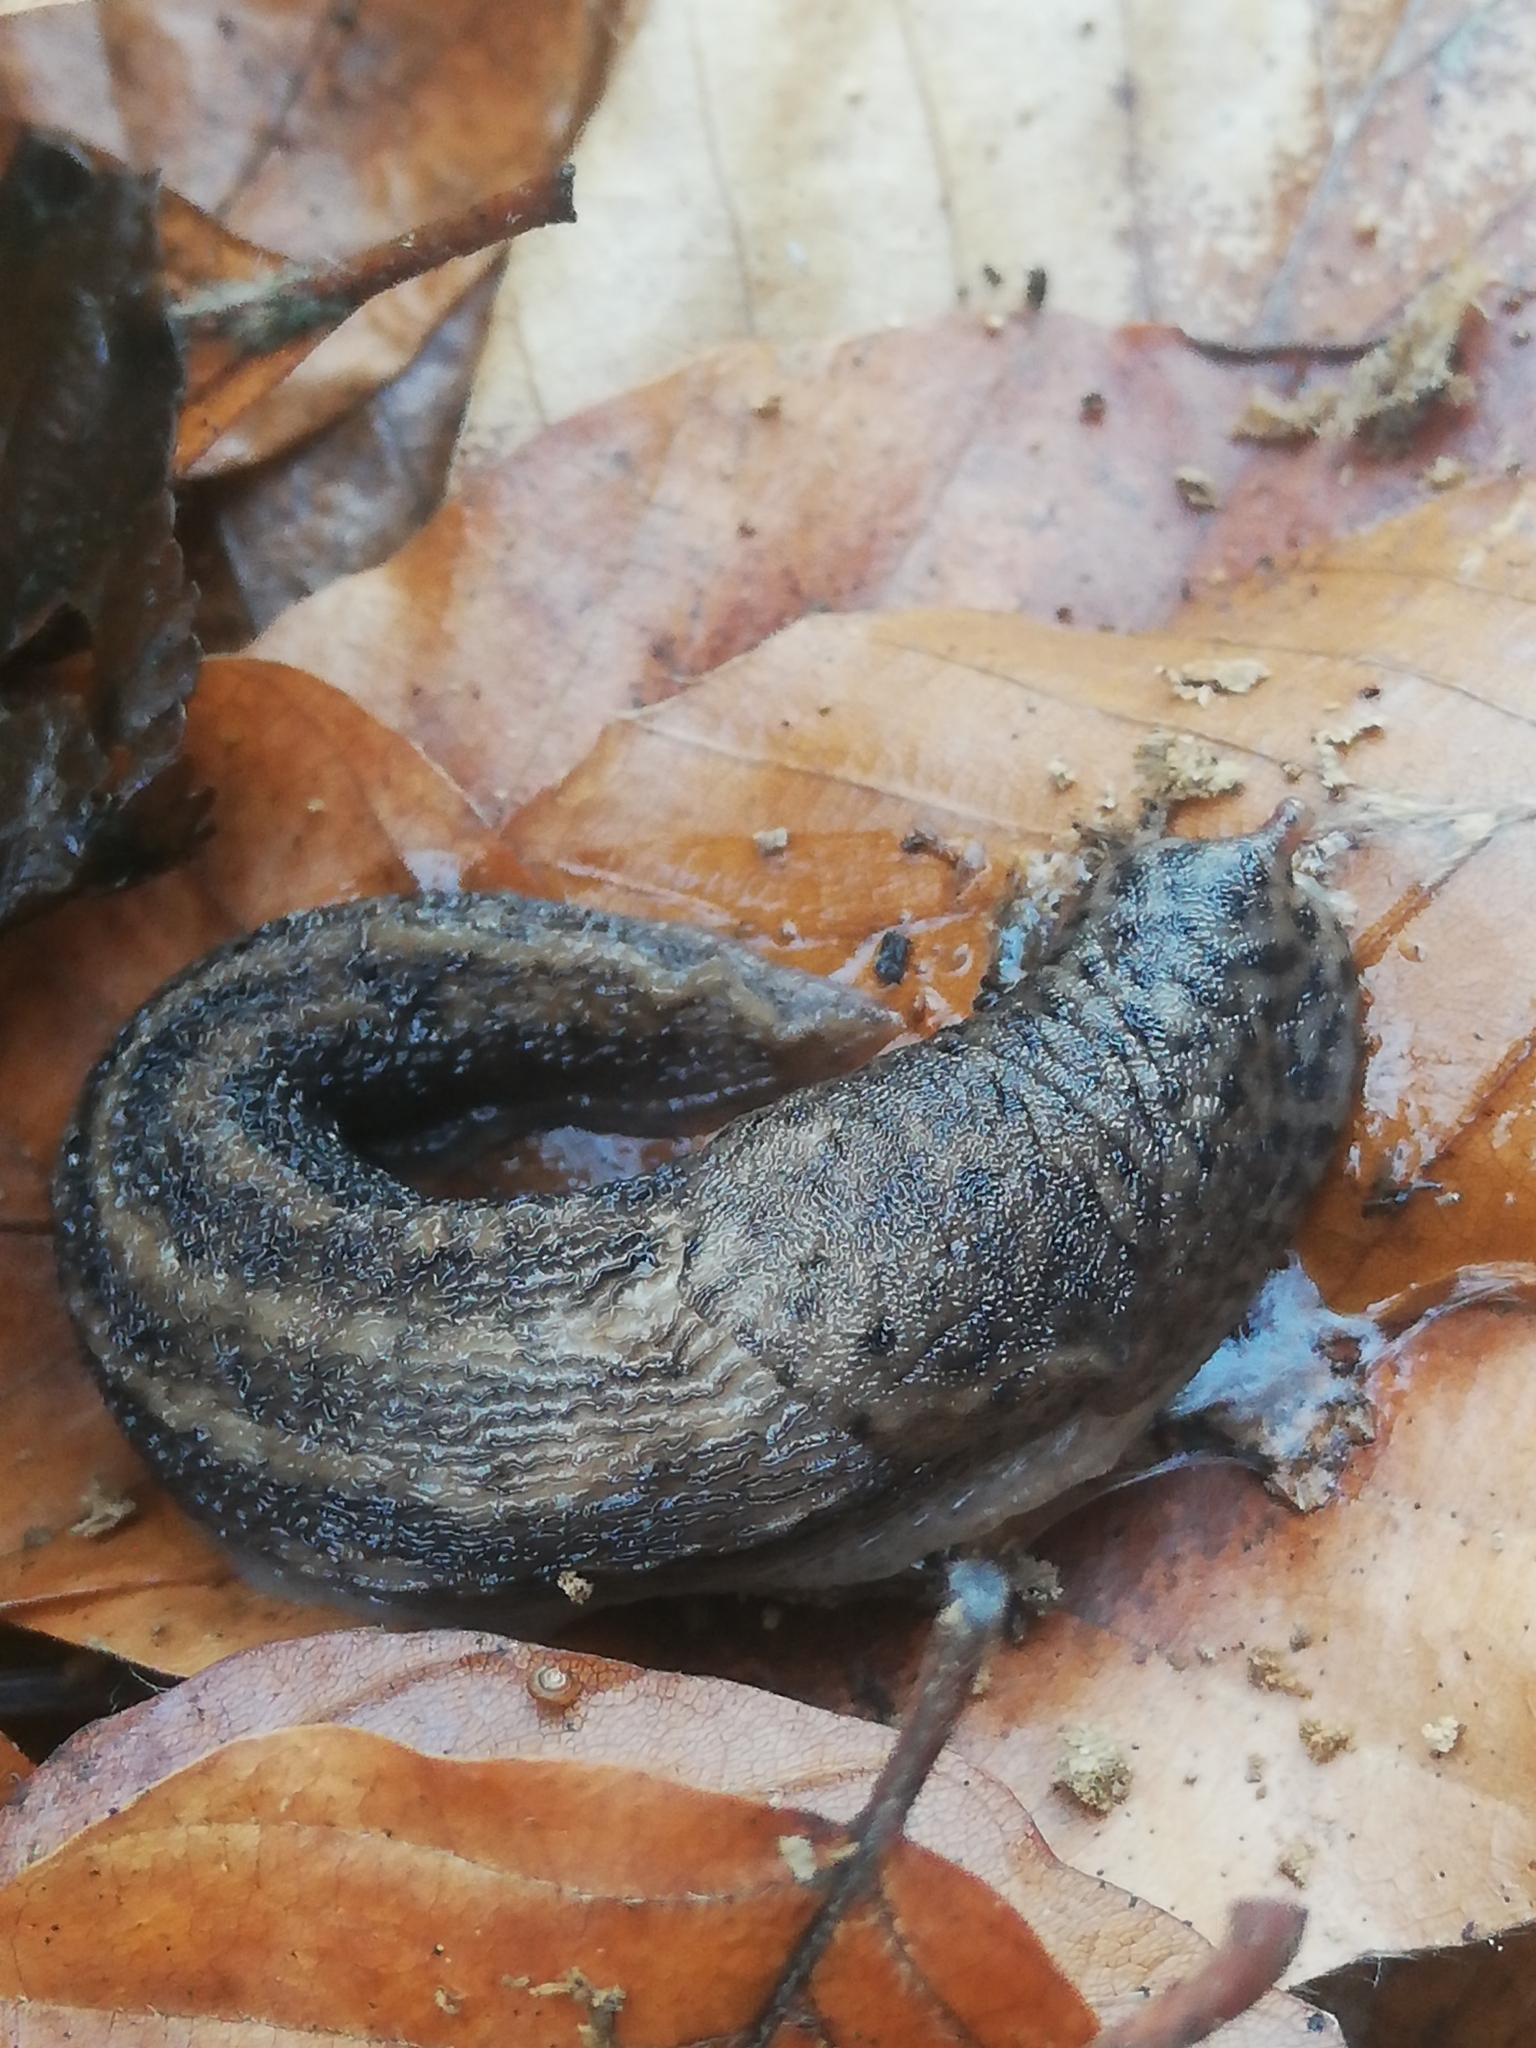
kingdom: Animalia
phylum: Mollusca
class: Gastropoda
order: Stylommatophora
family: Limacidae
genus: Limax
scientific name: Limax maximus
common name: Great grey slug
